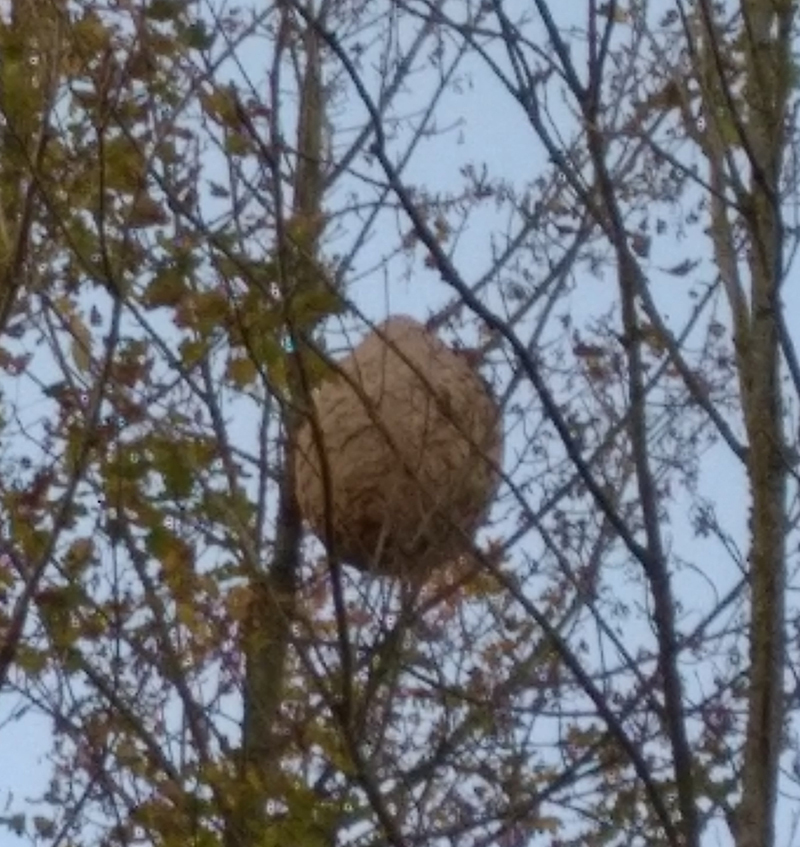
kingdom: Animalia
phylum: Arthropoda
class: Insecta
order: Hymenoptera
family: Vespidae
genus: Vespa
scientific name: Vespa velutina
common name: Asian hornet
